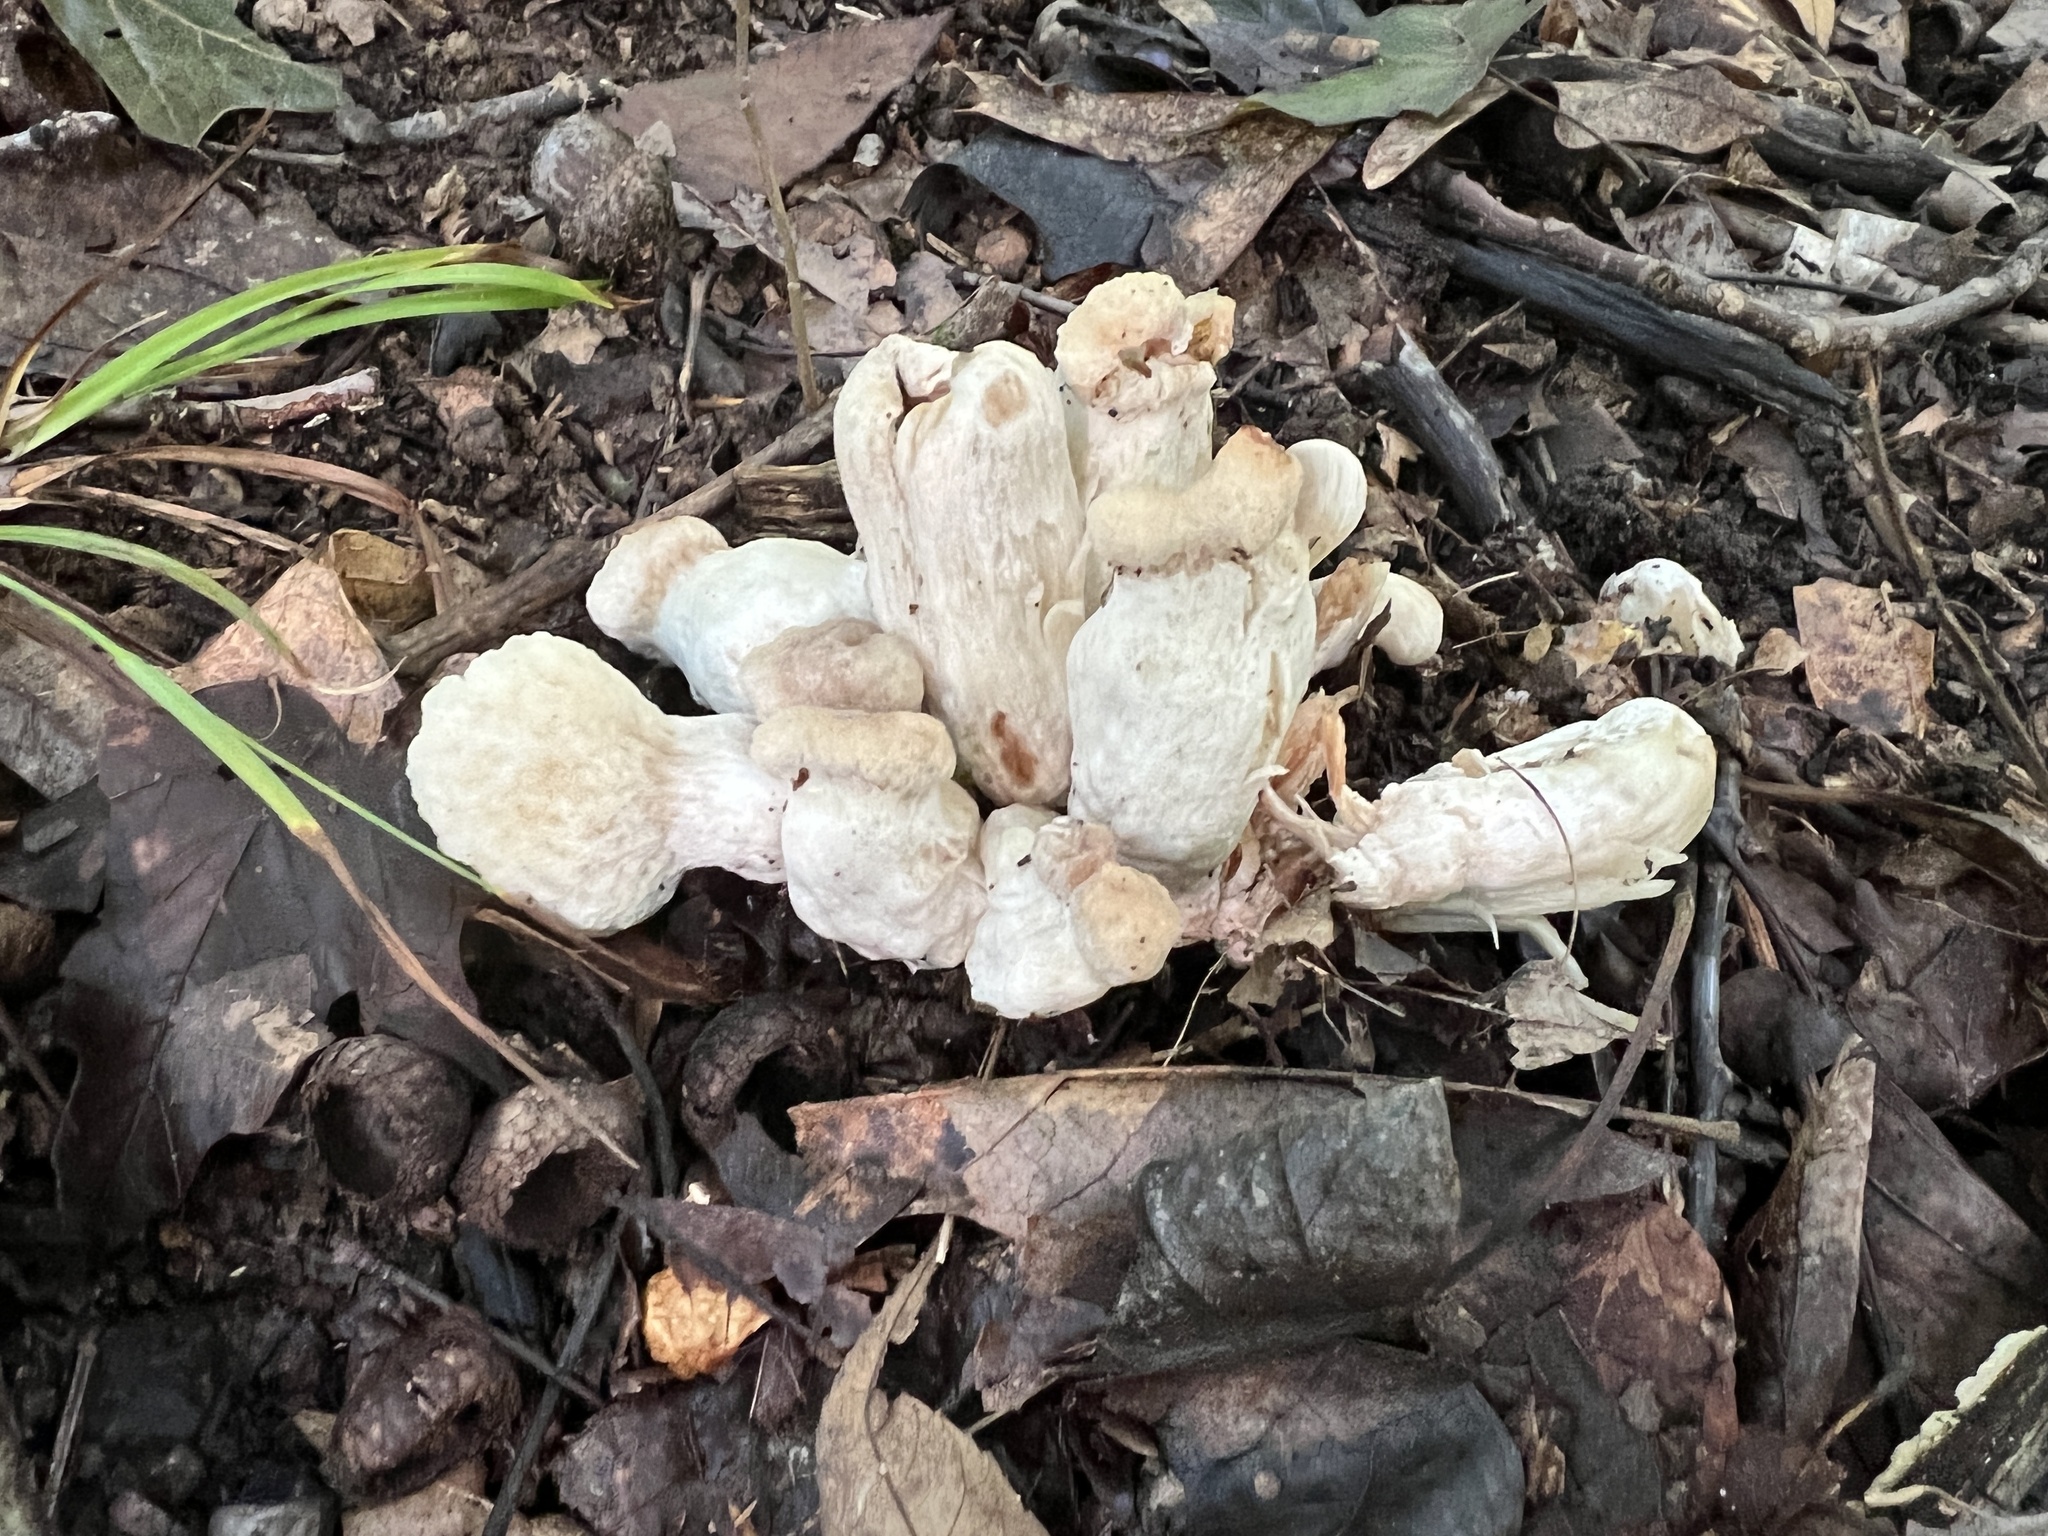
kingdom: Fungi
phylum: Basidiomycota
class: Agaricomycetes
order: Agaricales
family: Entolomataceae
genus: Entoloma
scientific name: Entoloma abortivum
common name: Aborted entoloma
